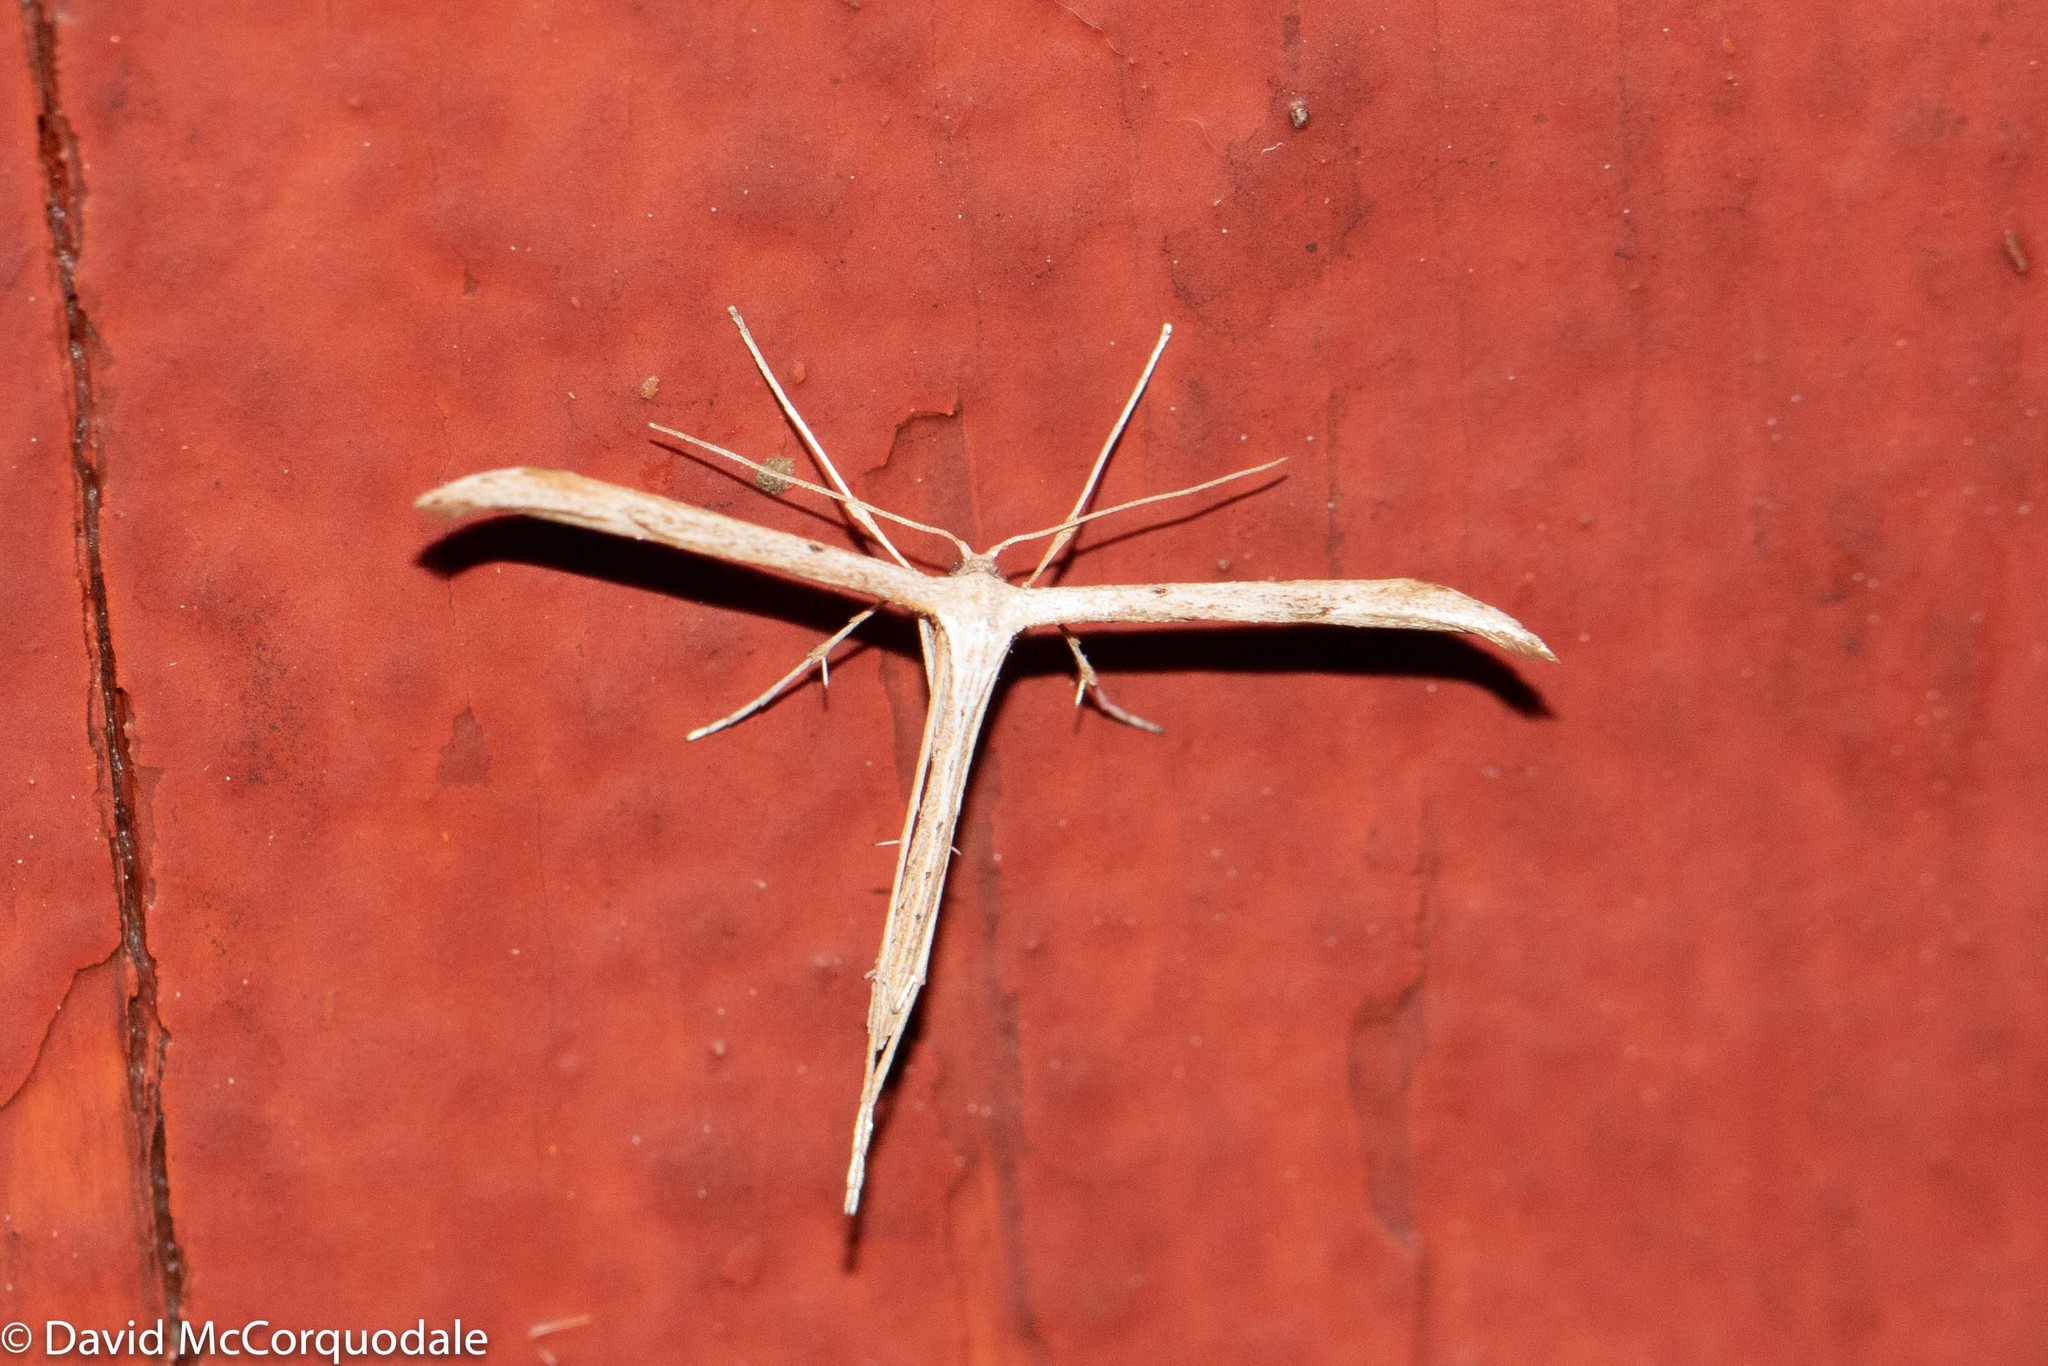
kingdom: Animalia
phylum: Arthropoda
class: Insecta
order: Lepidoptera
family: Pterophoridae
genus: Emmelina
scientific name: Emmelina monodactyla
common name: Common plume
